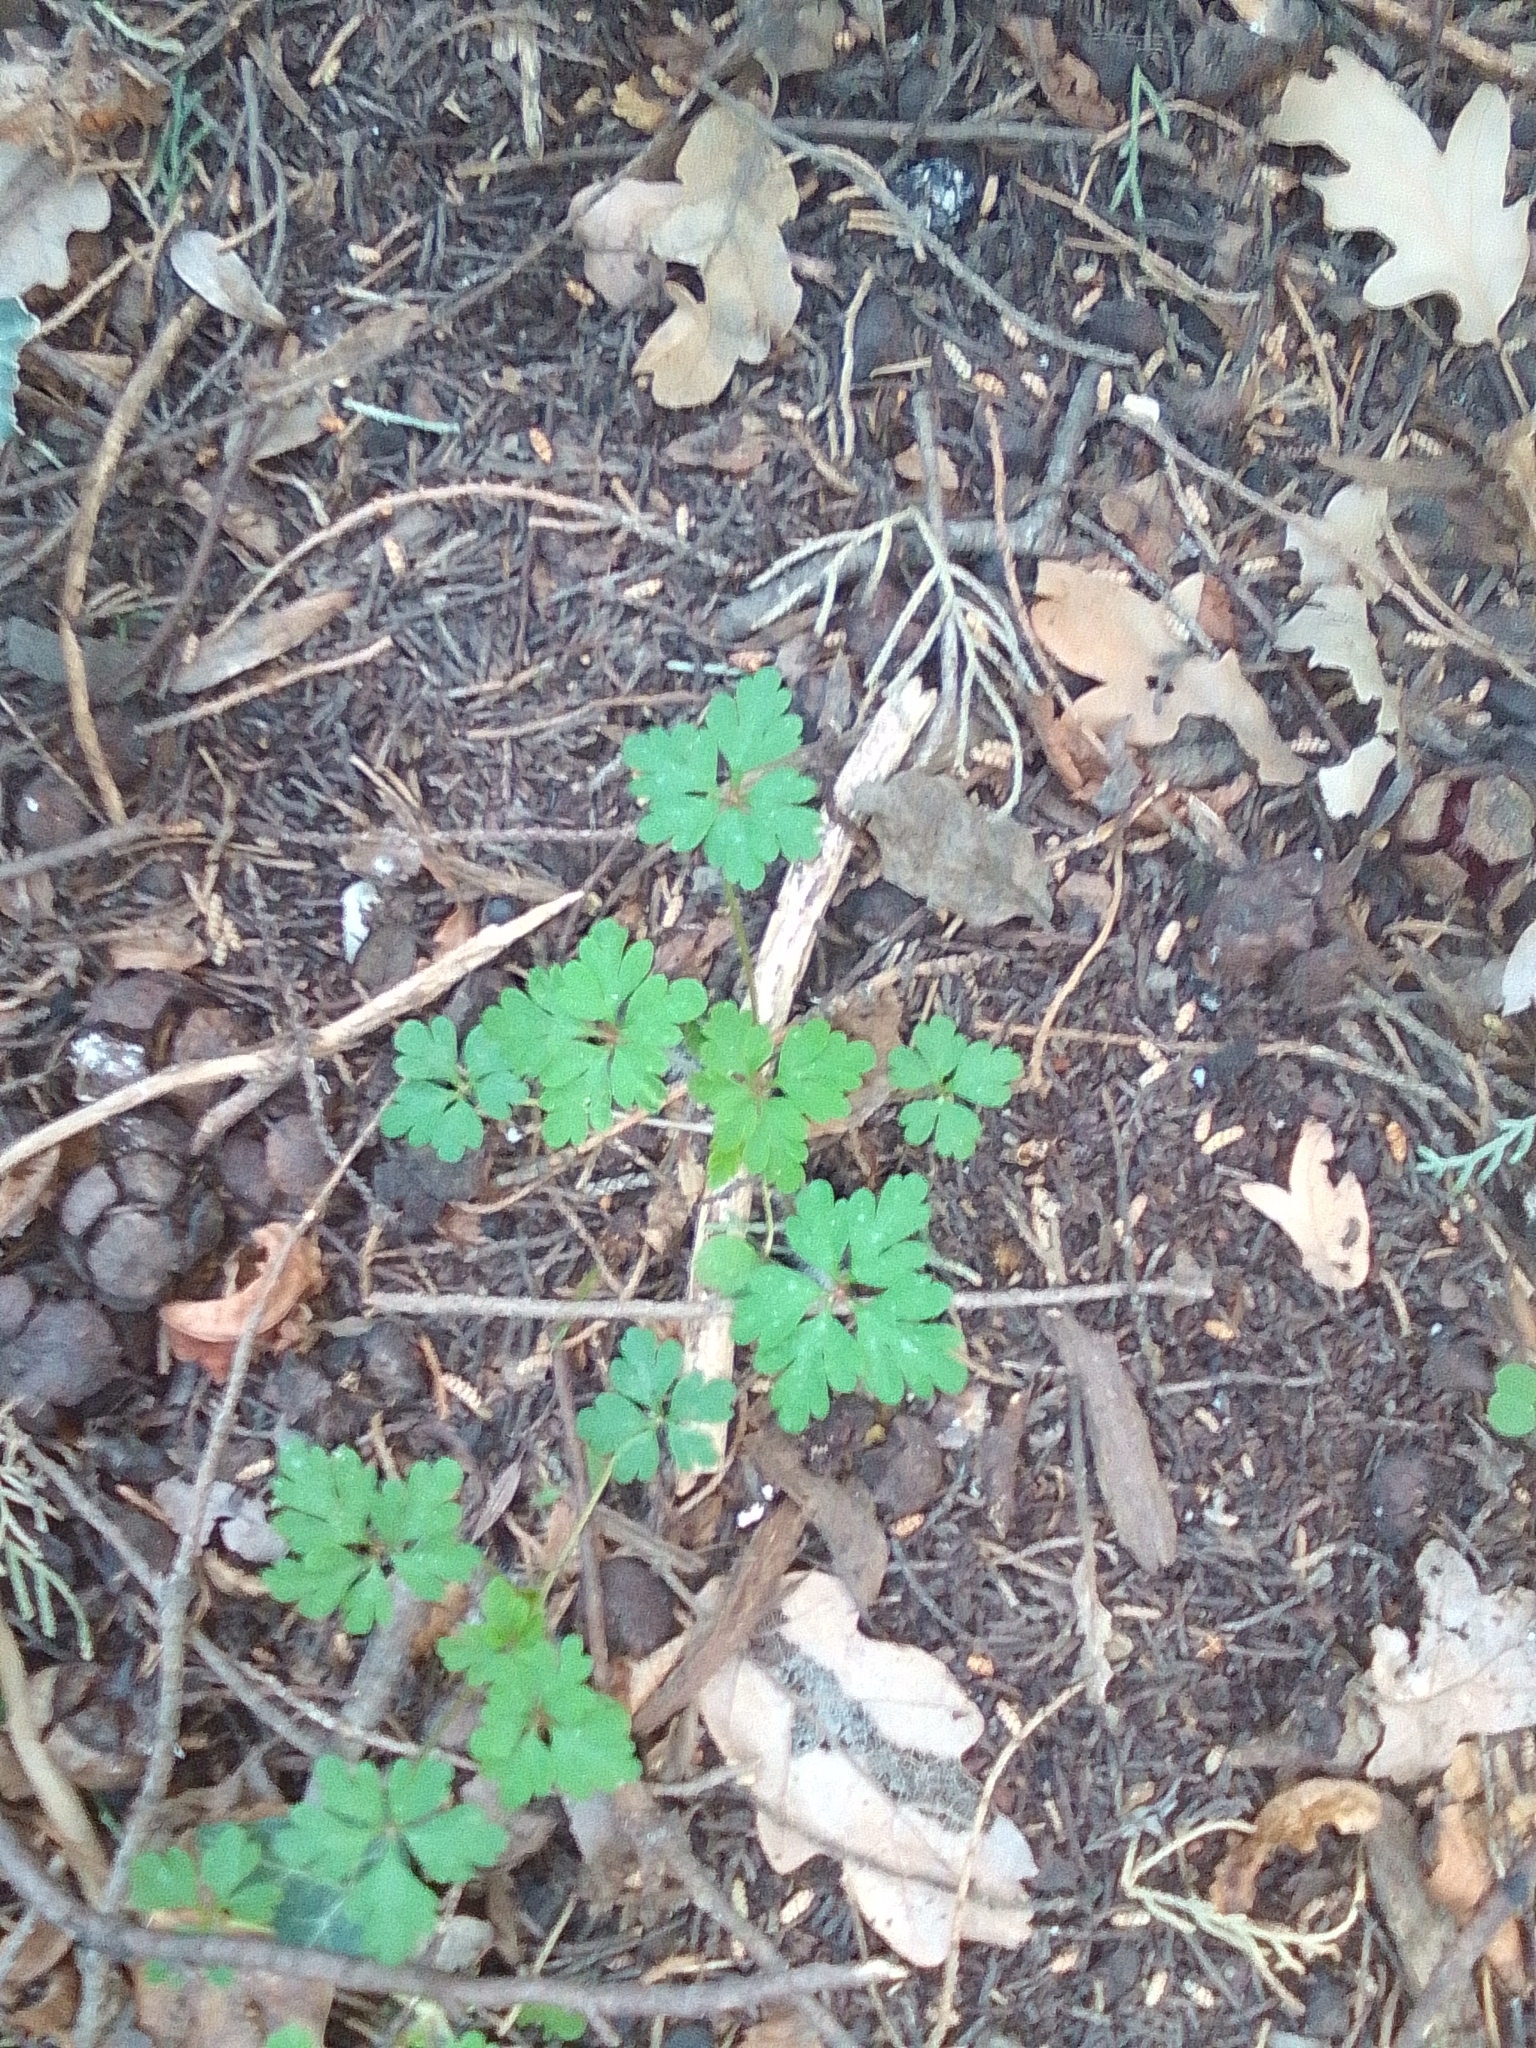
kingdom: Plantae
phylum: Tracheophyta
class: Magnoliopsida
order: Geraniales
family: Geraniaceae
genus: Geranium
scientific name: Geranium robertianum
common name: Herb-robert
